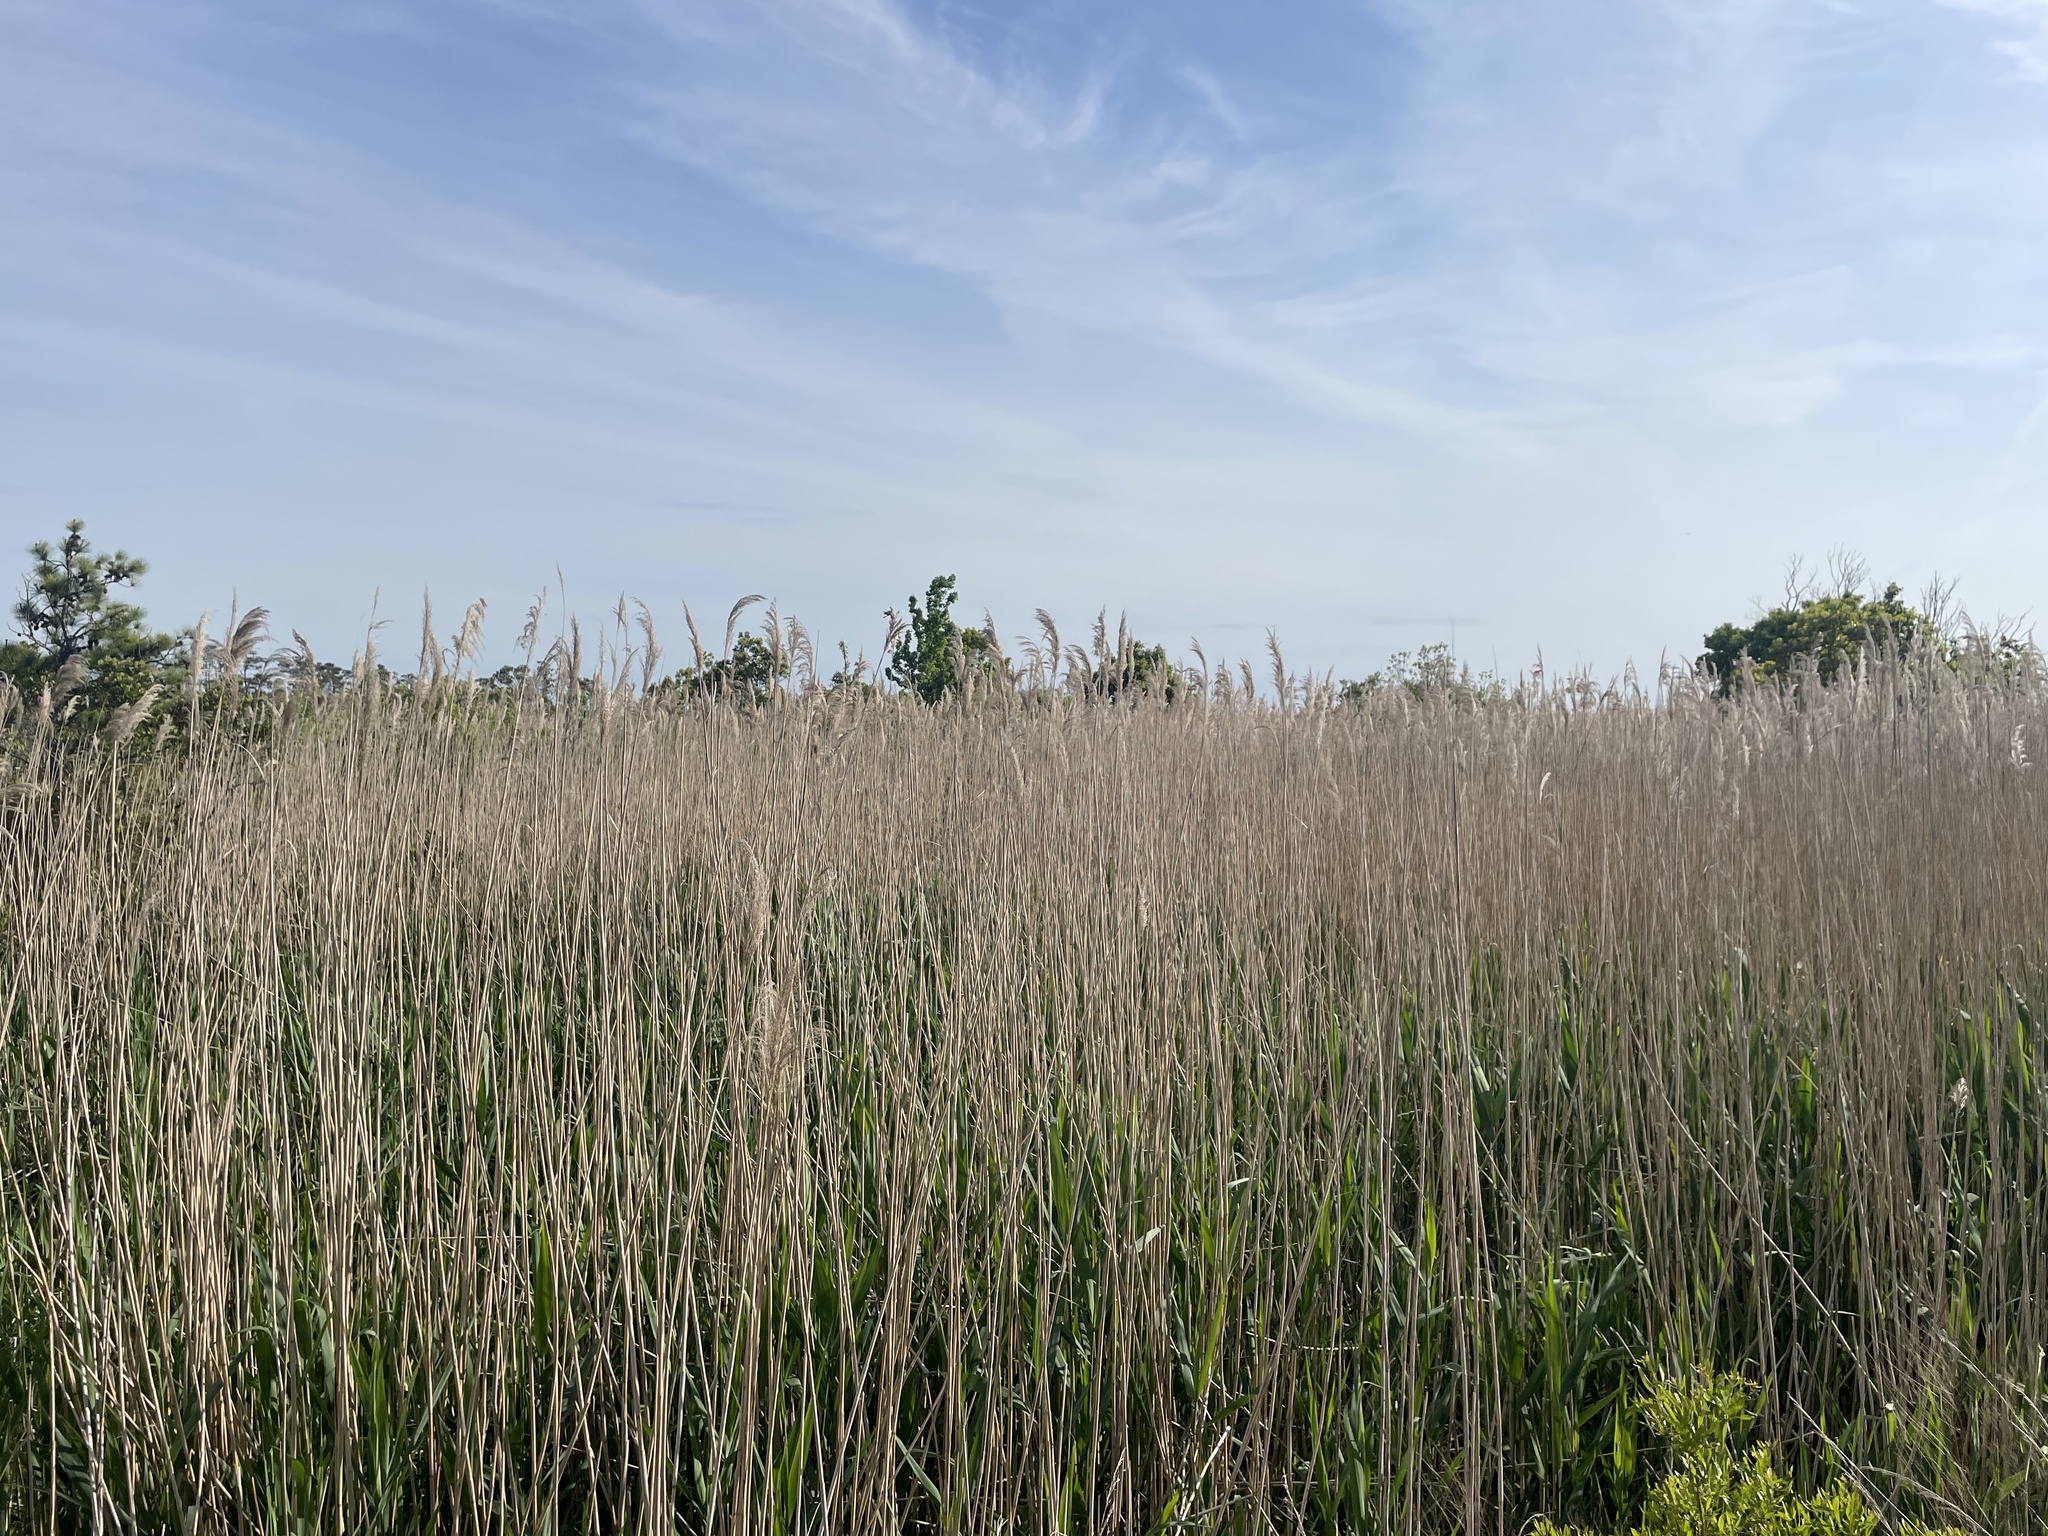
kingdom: Plantae
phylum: Tracheophyta
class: Liliopsida
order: Poales
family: Poaceae
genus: Phragmites
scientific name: Phragmites australis
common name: Common reed
